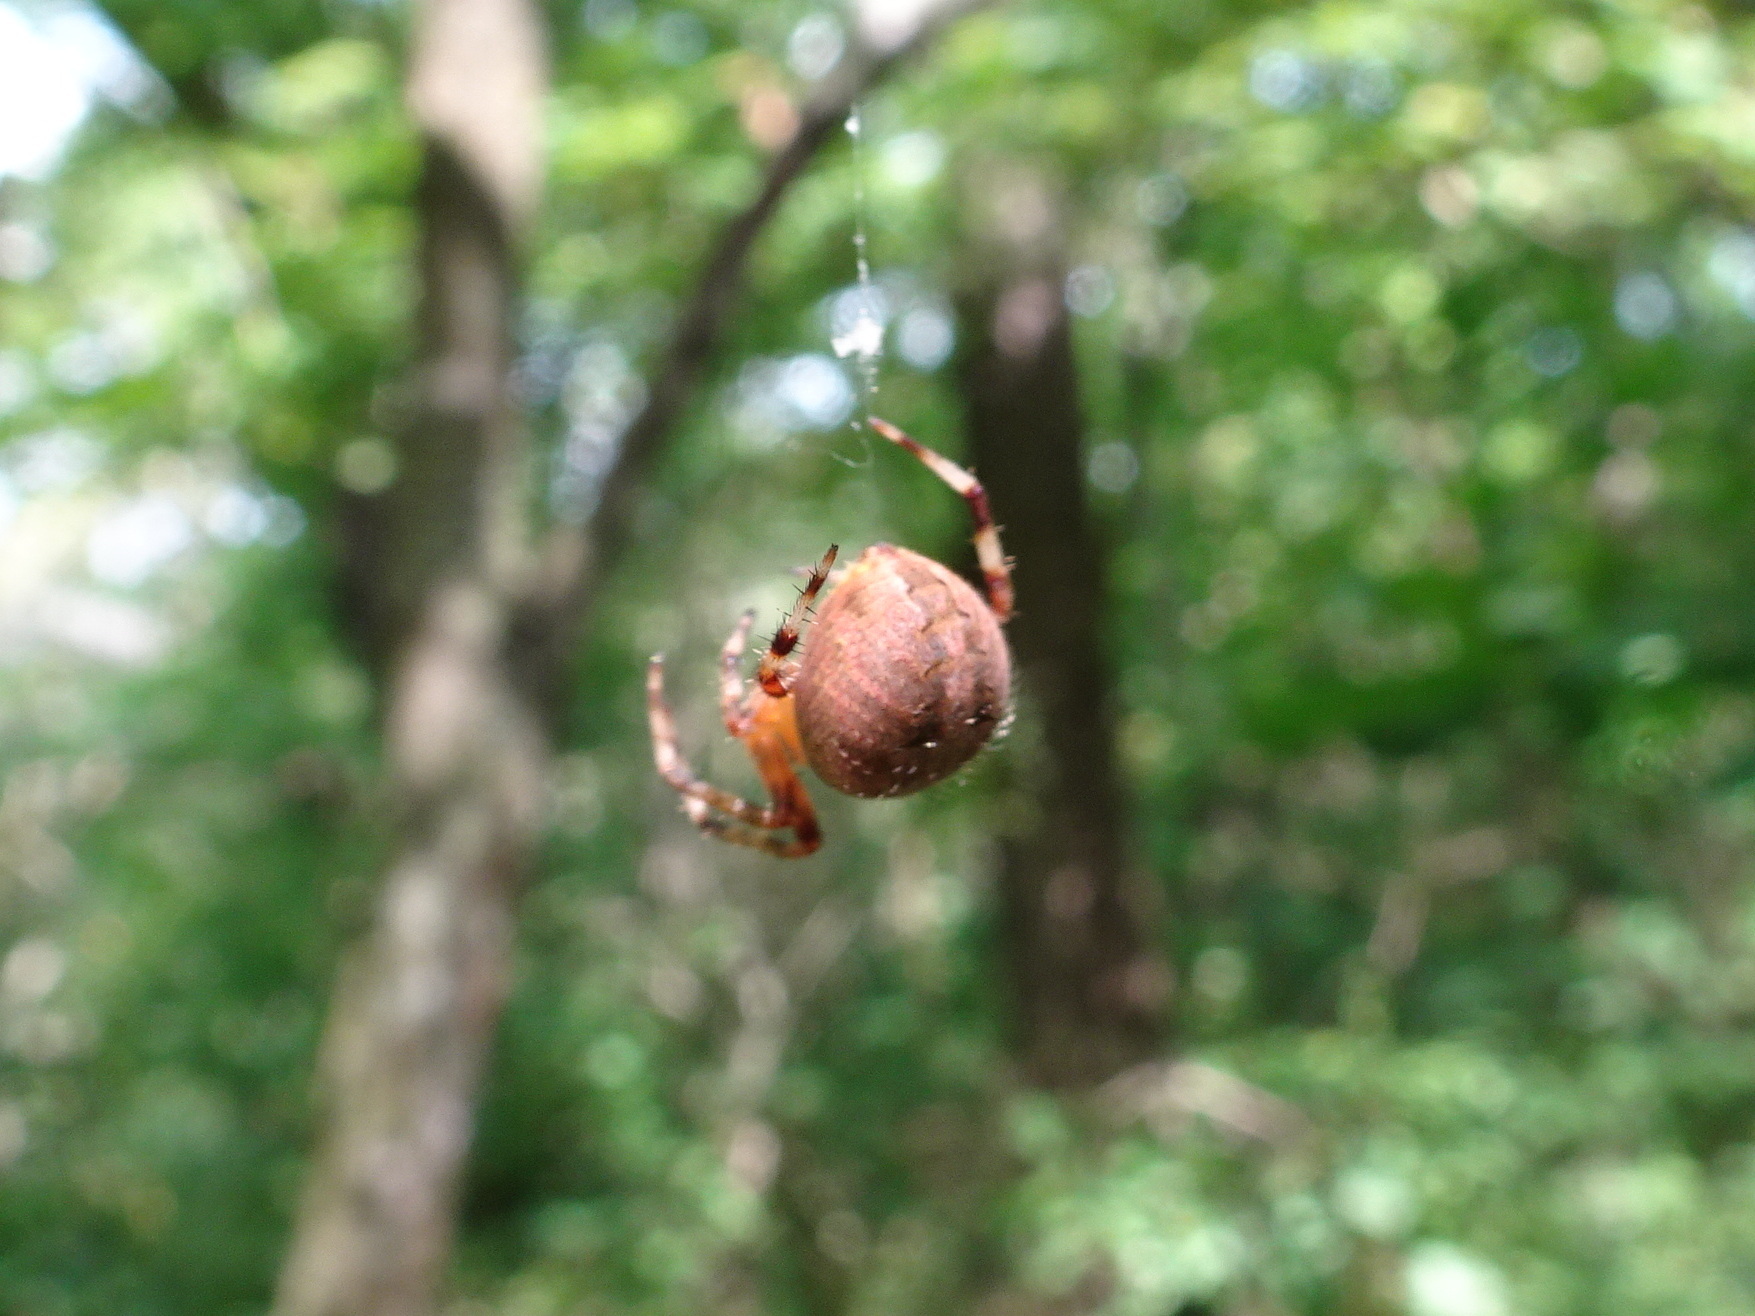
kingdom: Animalia
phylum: Arthropoda
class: Arachnida
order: Araneae
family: Araneidae
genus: Neoscona
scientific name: Neoscona crucifera
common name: Spotted orbweaver
